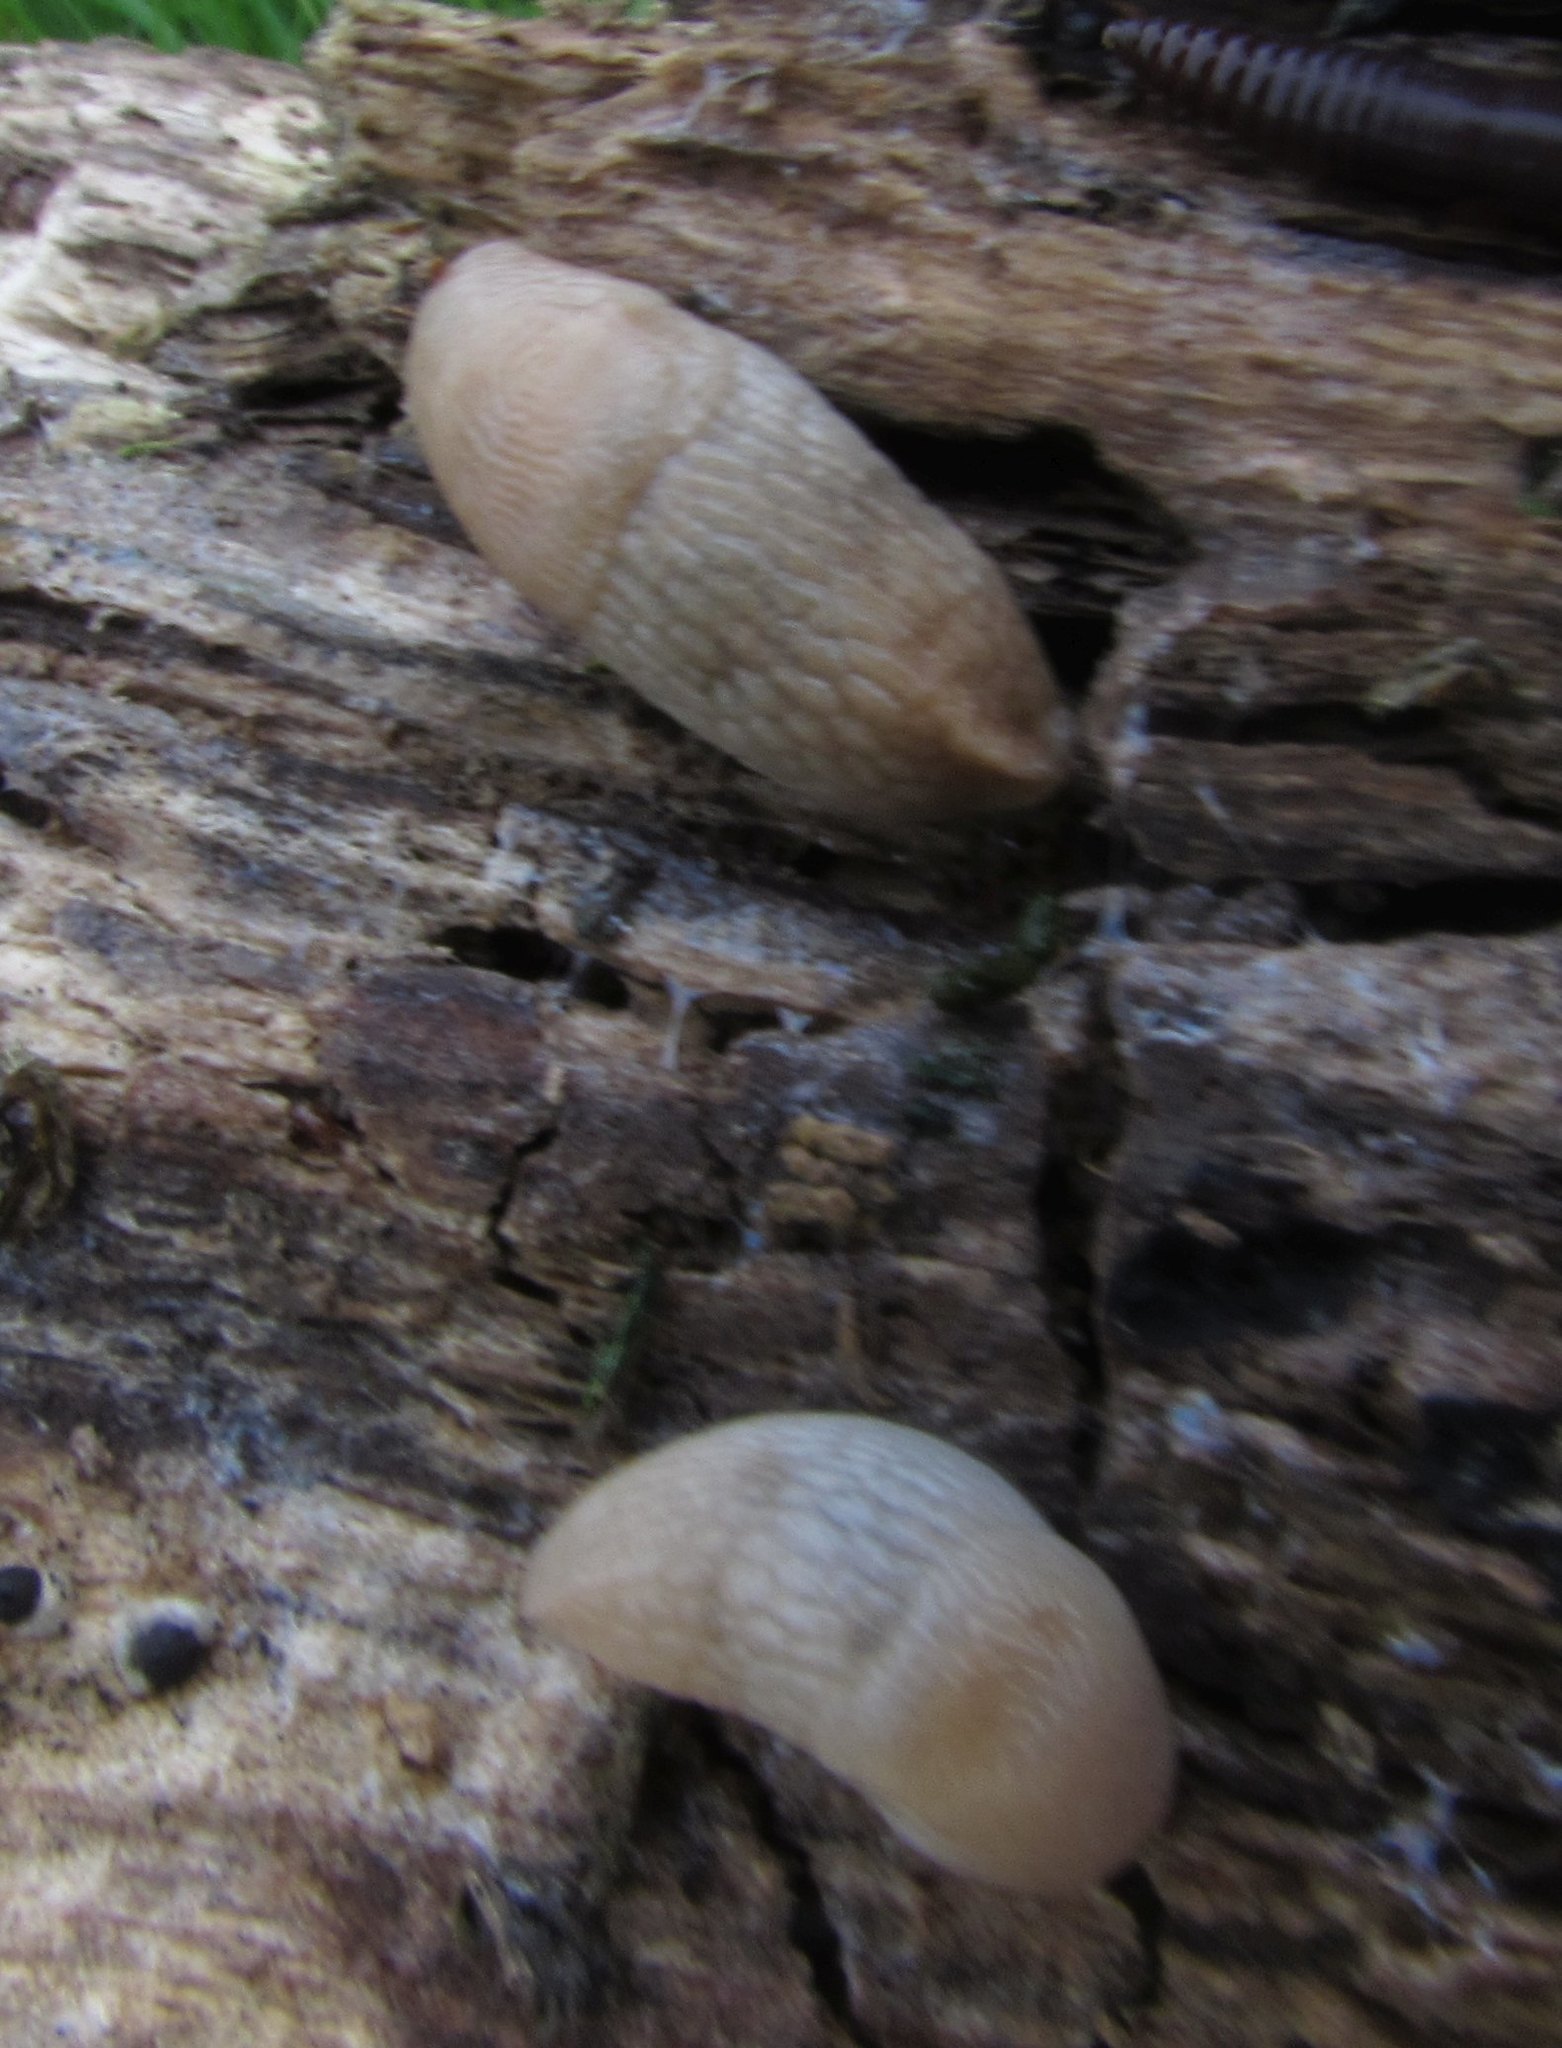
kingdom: Animalia
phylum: Mollusca
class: Gastropoda
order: Stylommatophora
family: Agriolimacidae
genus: Deroceras
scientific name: Deroceras reticulatum
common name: Gray field slug
